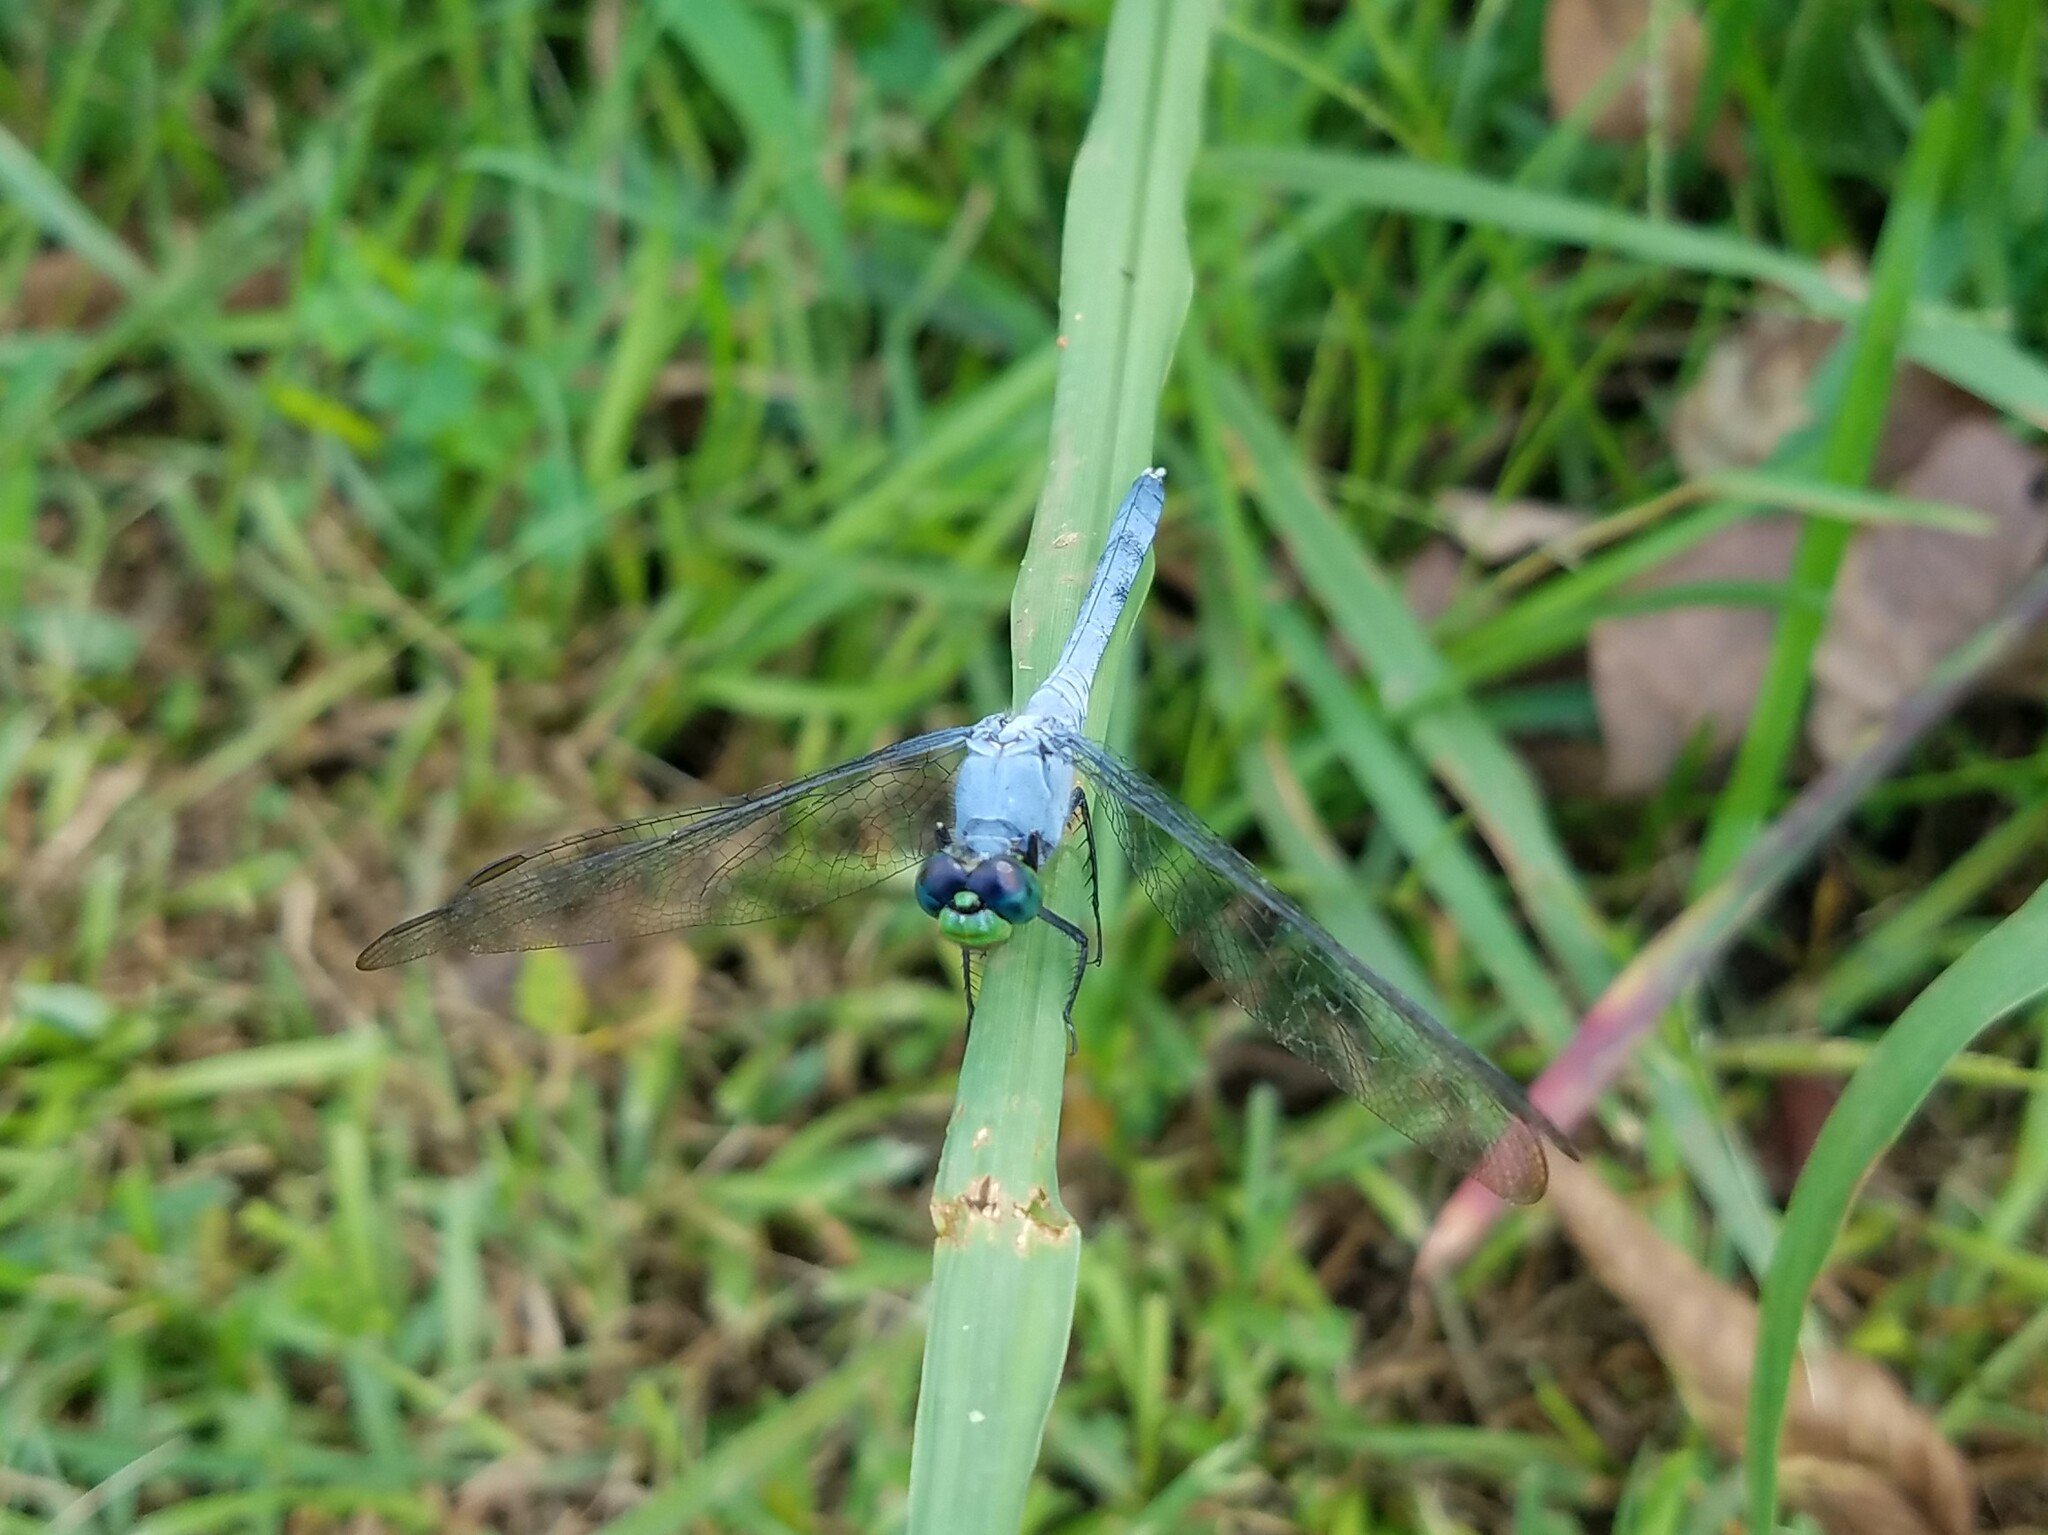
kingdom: Animalia
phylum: Arthropoda
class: Insecta
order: Odonata
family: Libellulidae
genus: Erythemis
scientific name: Erythemis simplicicollis
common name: Eastern pondhawk
